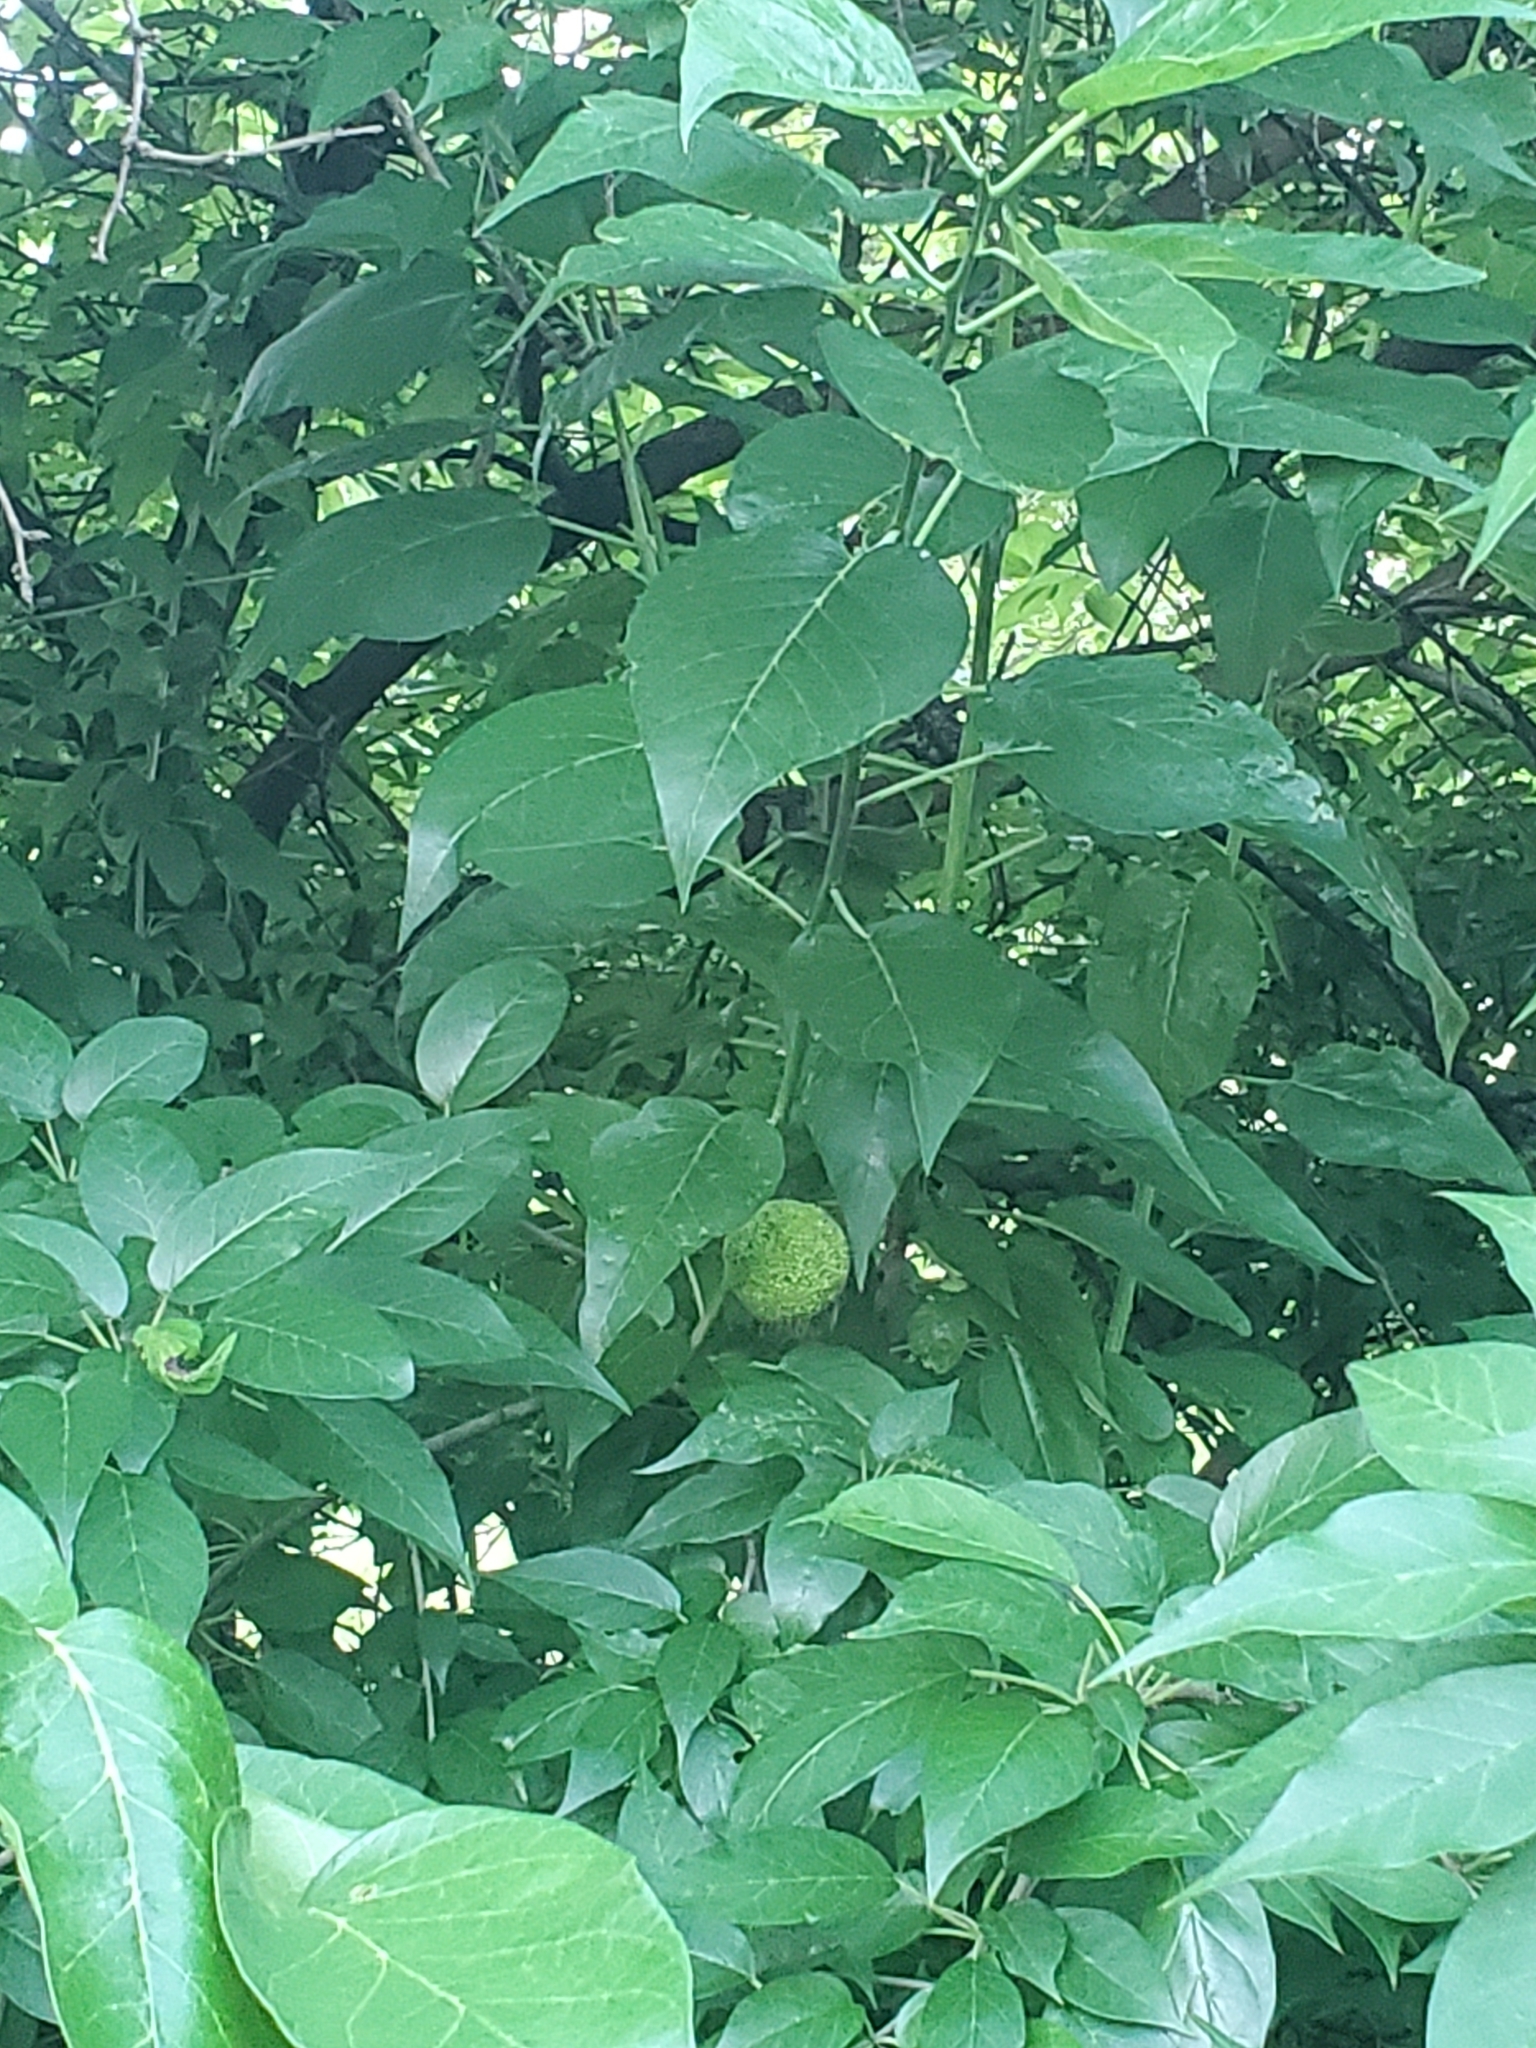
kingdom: Plantae
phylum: Tracheophyta
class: Magnoliopsida
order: Rosales
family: Moraceae
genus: Maclura
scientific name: Maclura pomifera
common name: Osage-orange
